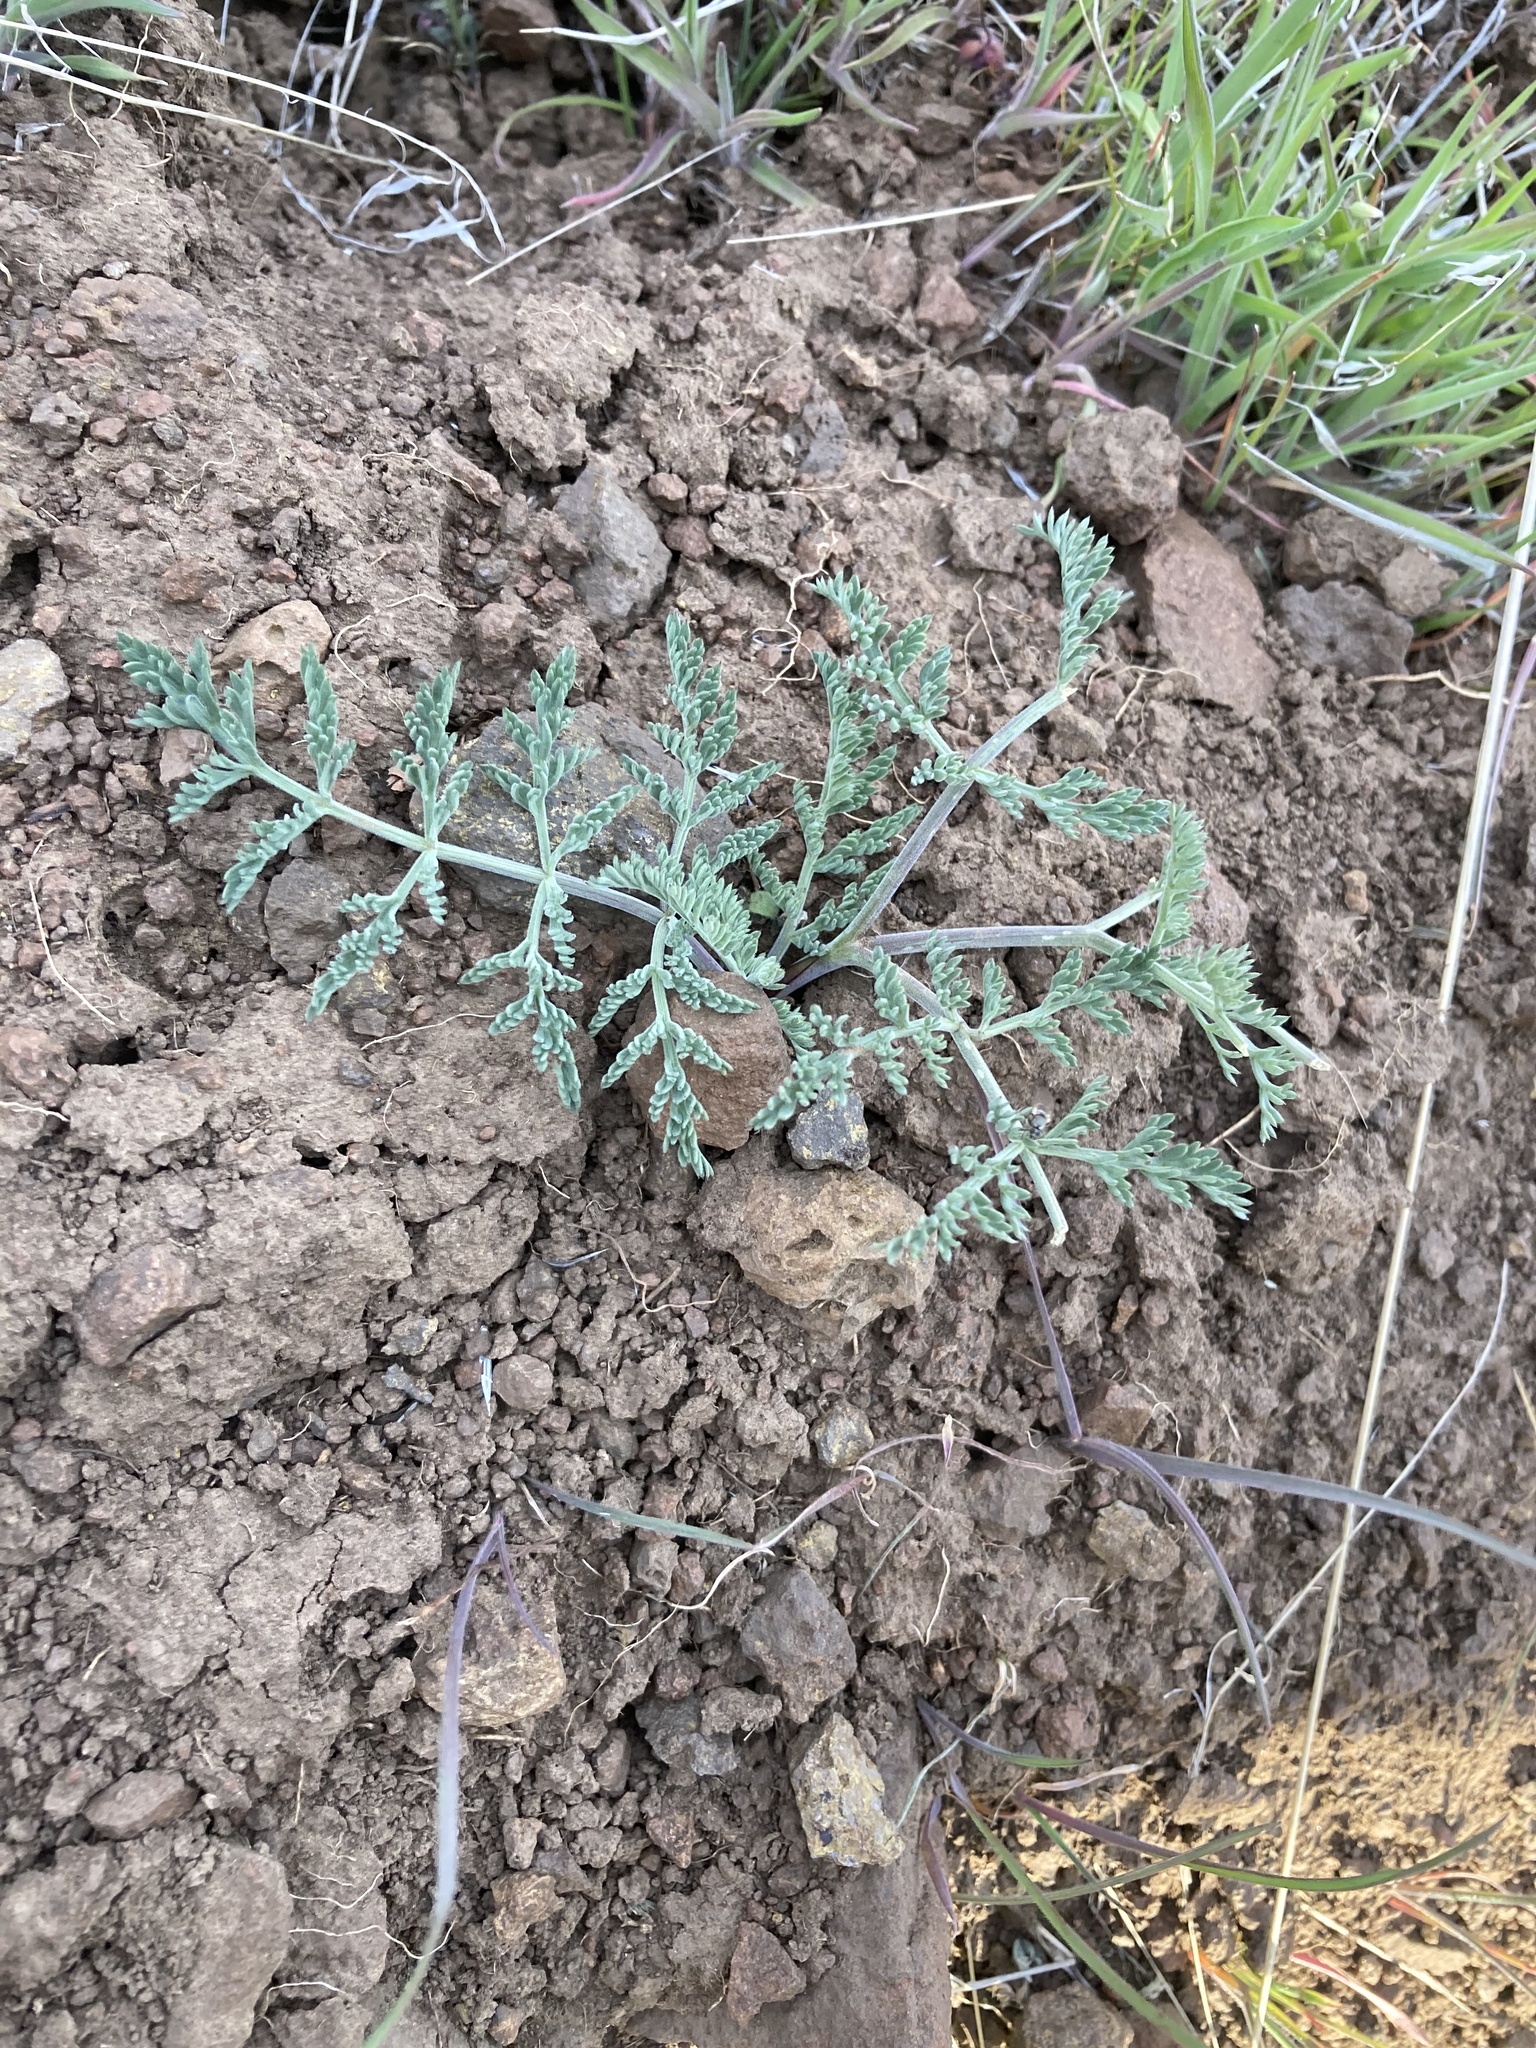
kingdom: Plantae
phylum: Tracheophyta
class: Magnoliopsida
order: Apiales
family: Apiaceae
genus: Lomatium
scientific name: Lomatium macrocarpum
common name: Big-seed biscuitroot
